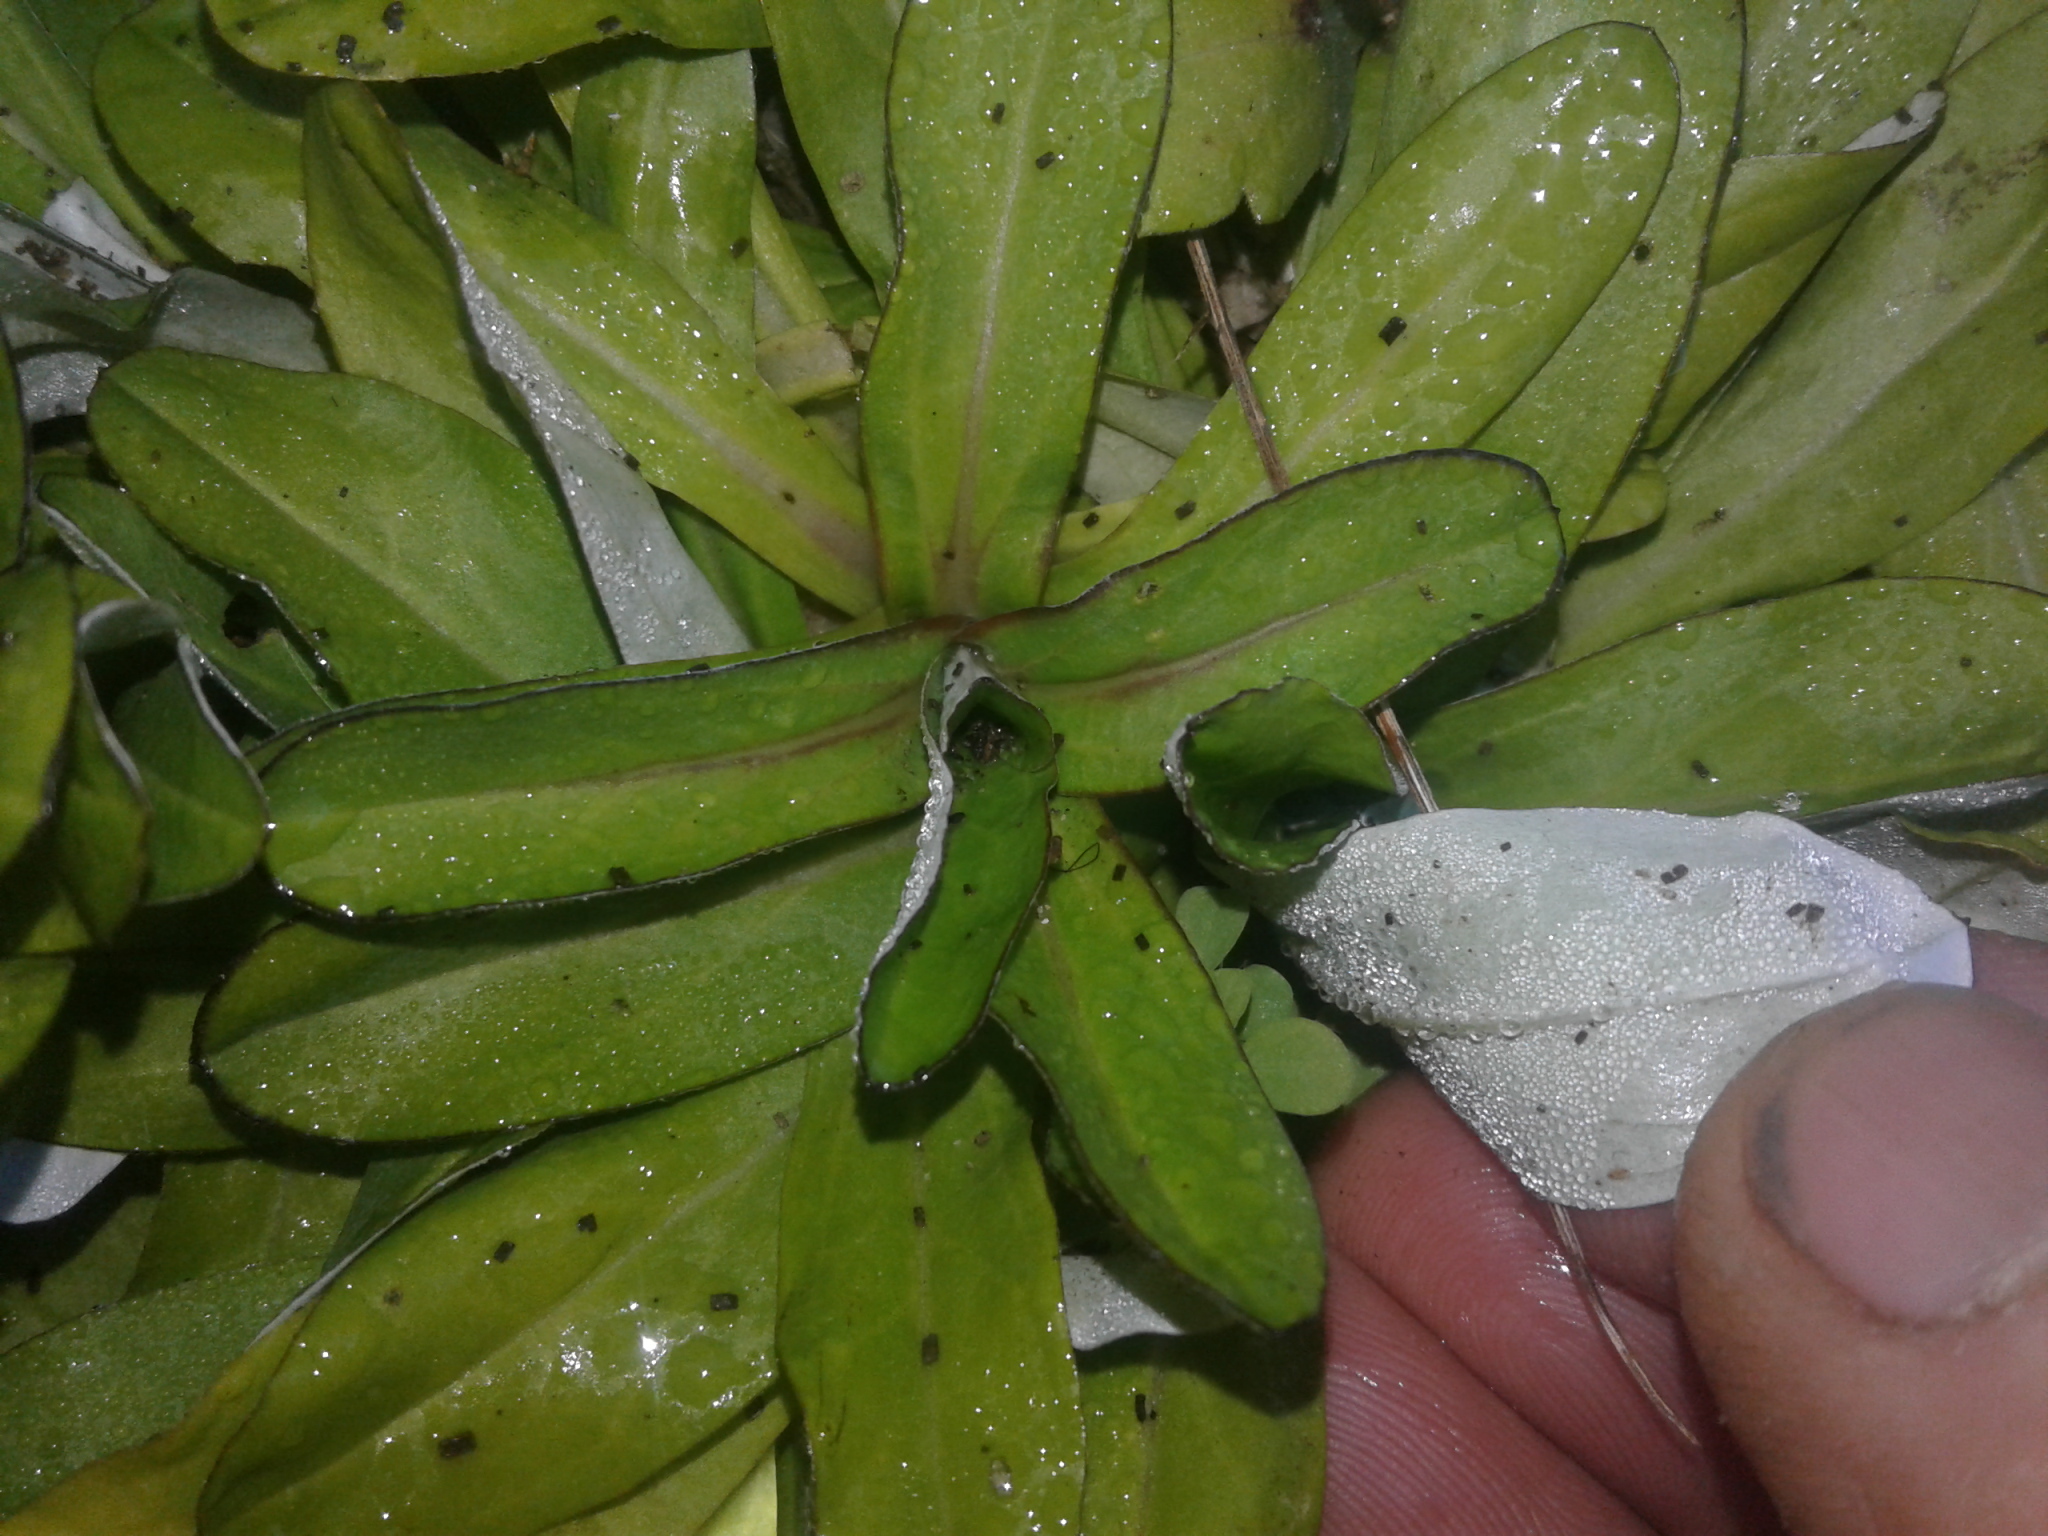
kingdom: Plantae
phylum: Tracheophyta
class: Magnoliopsida
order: Asterales
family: Asteraceae
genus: Gamochaeta
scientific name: Gamochaeta americana
